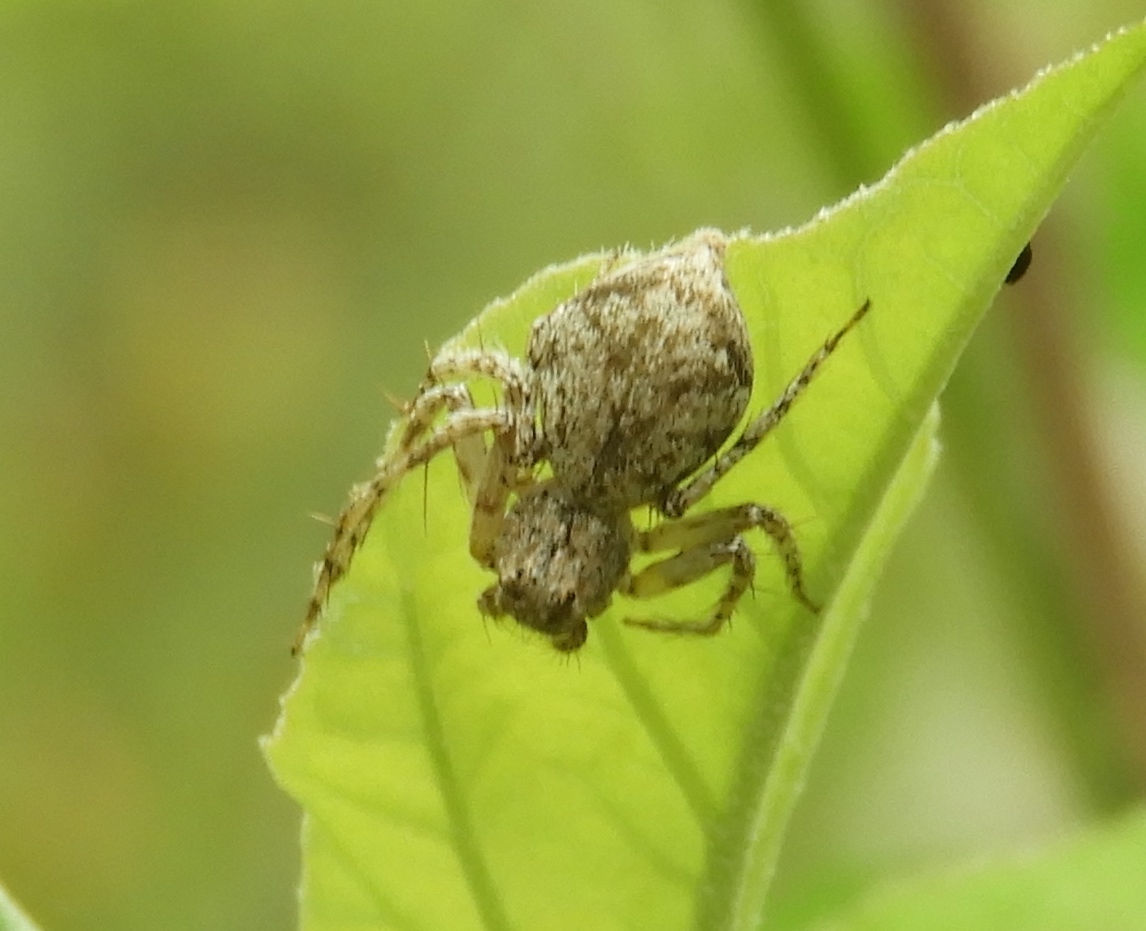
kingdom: Animalia
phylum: Arthropoda
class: Arachnida
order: Araneae
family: Oxyopidae
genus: Hamataliwa
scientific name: Hamataliwa
